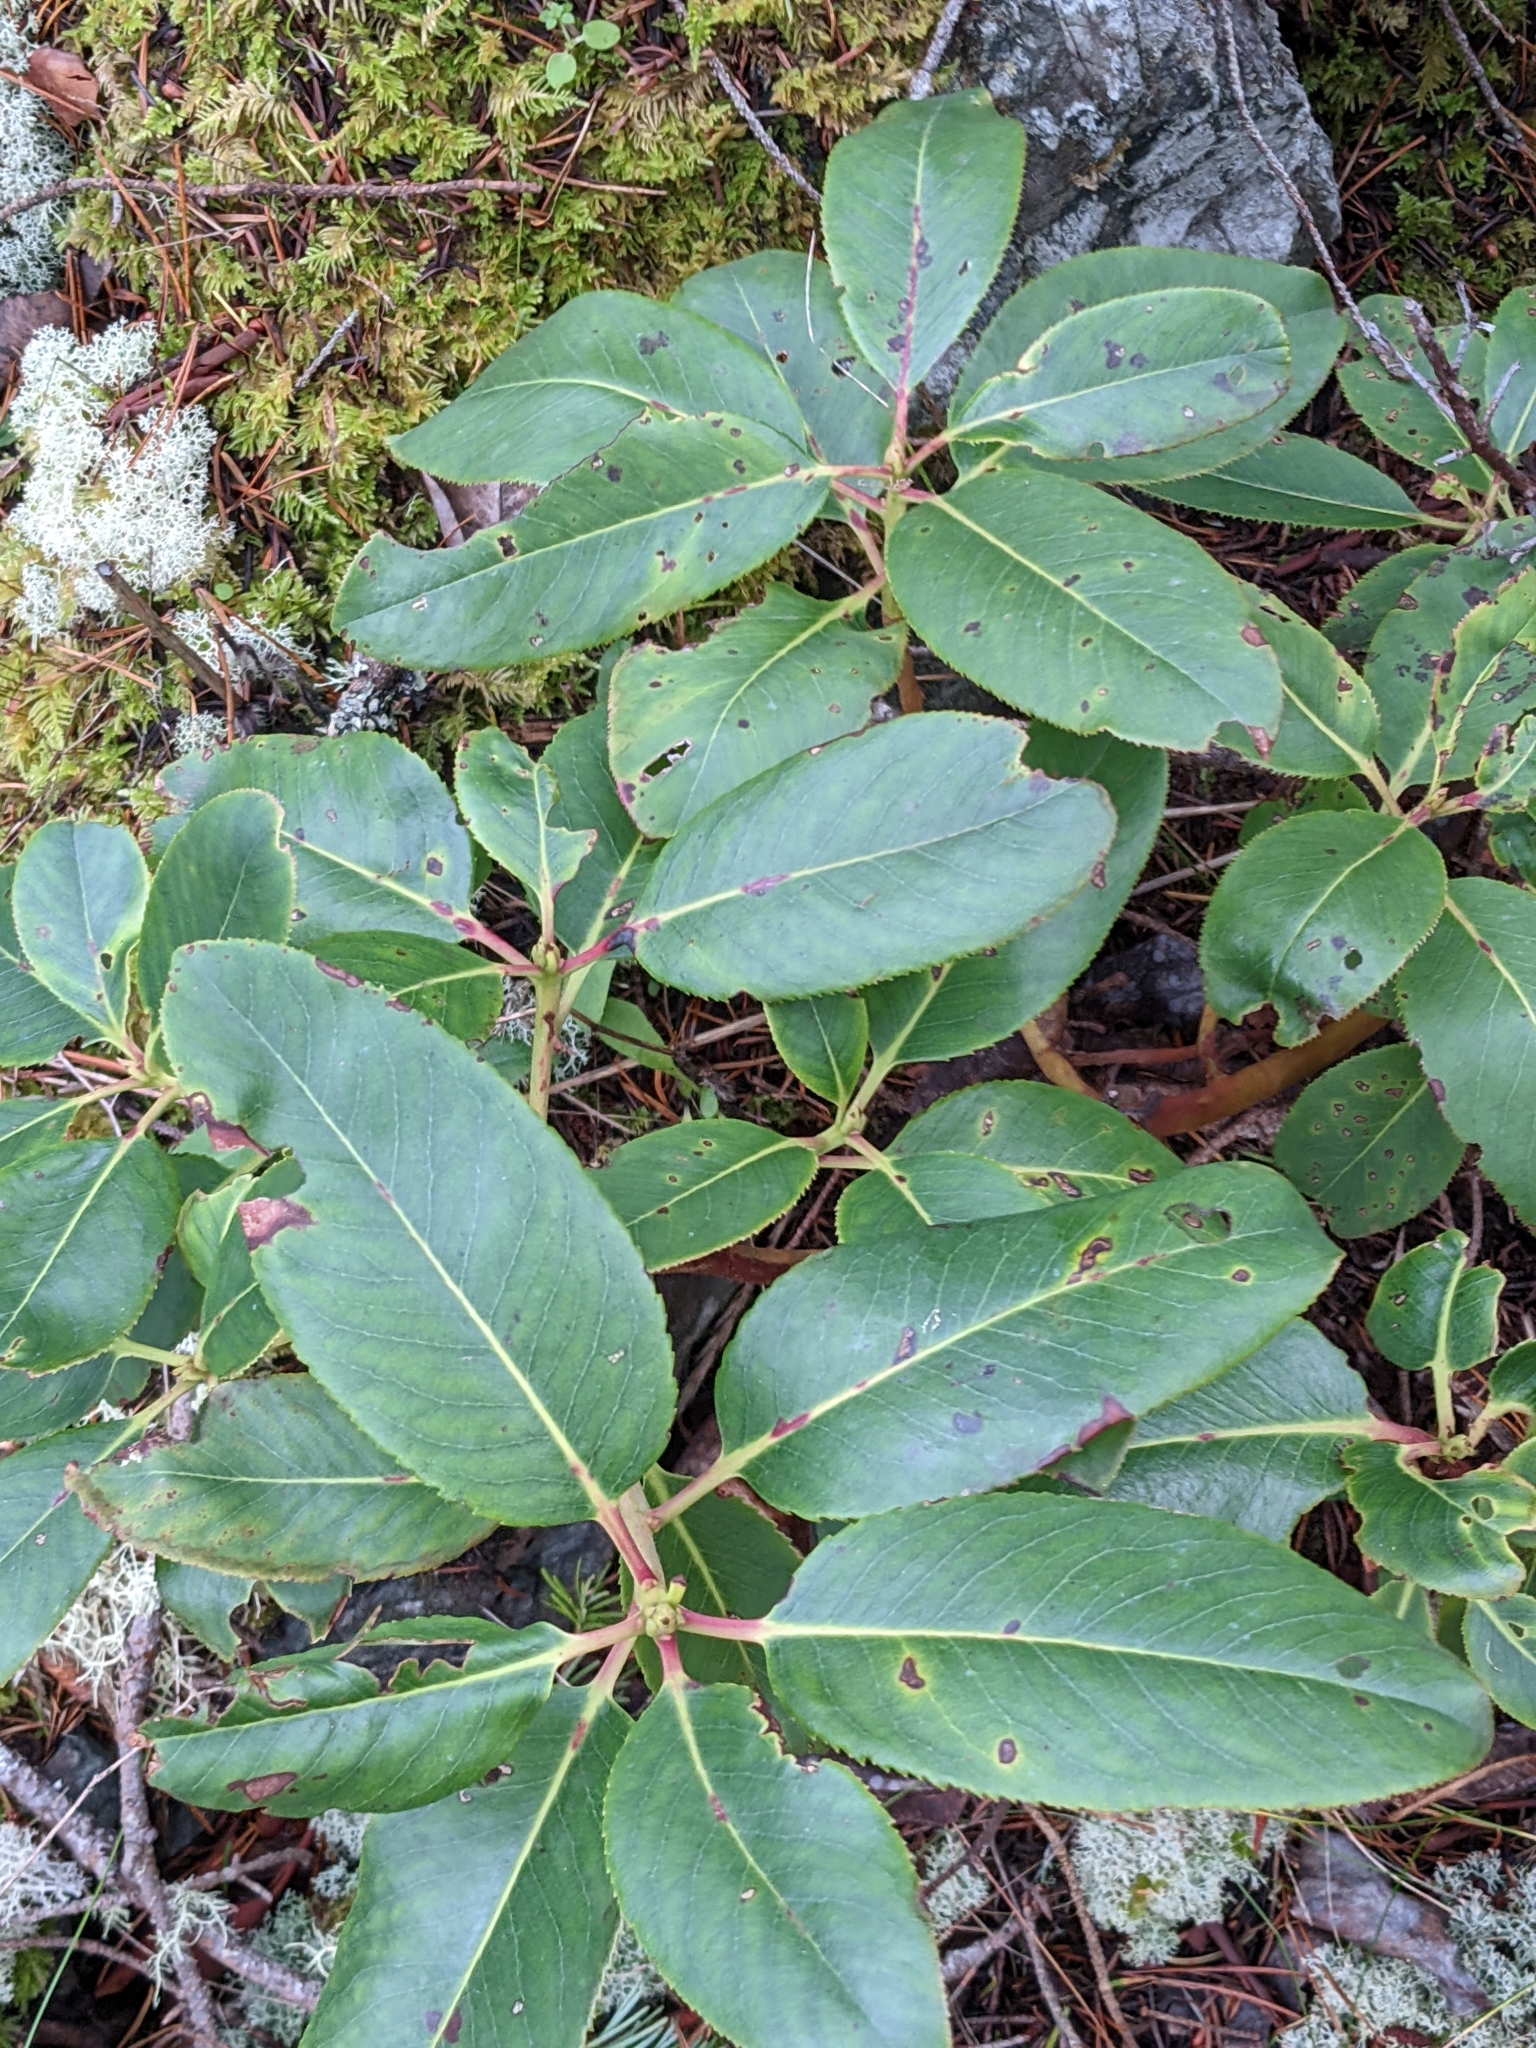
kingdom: Plantae
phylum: Tracheophyta
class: Magnoliopsida
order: Ericales
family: Ericaceae
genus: Arbutus
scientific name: Arbutus menziesii
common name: Pacific madrone
